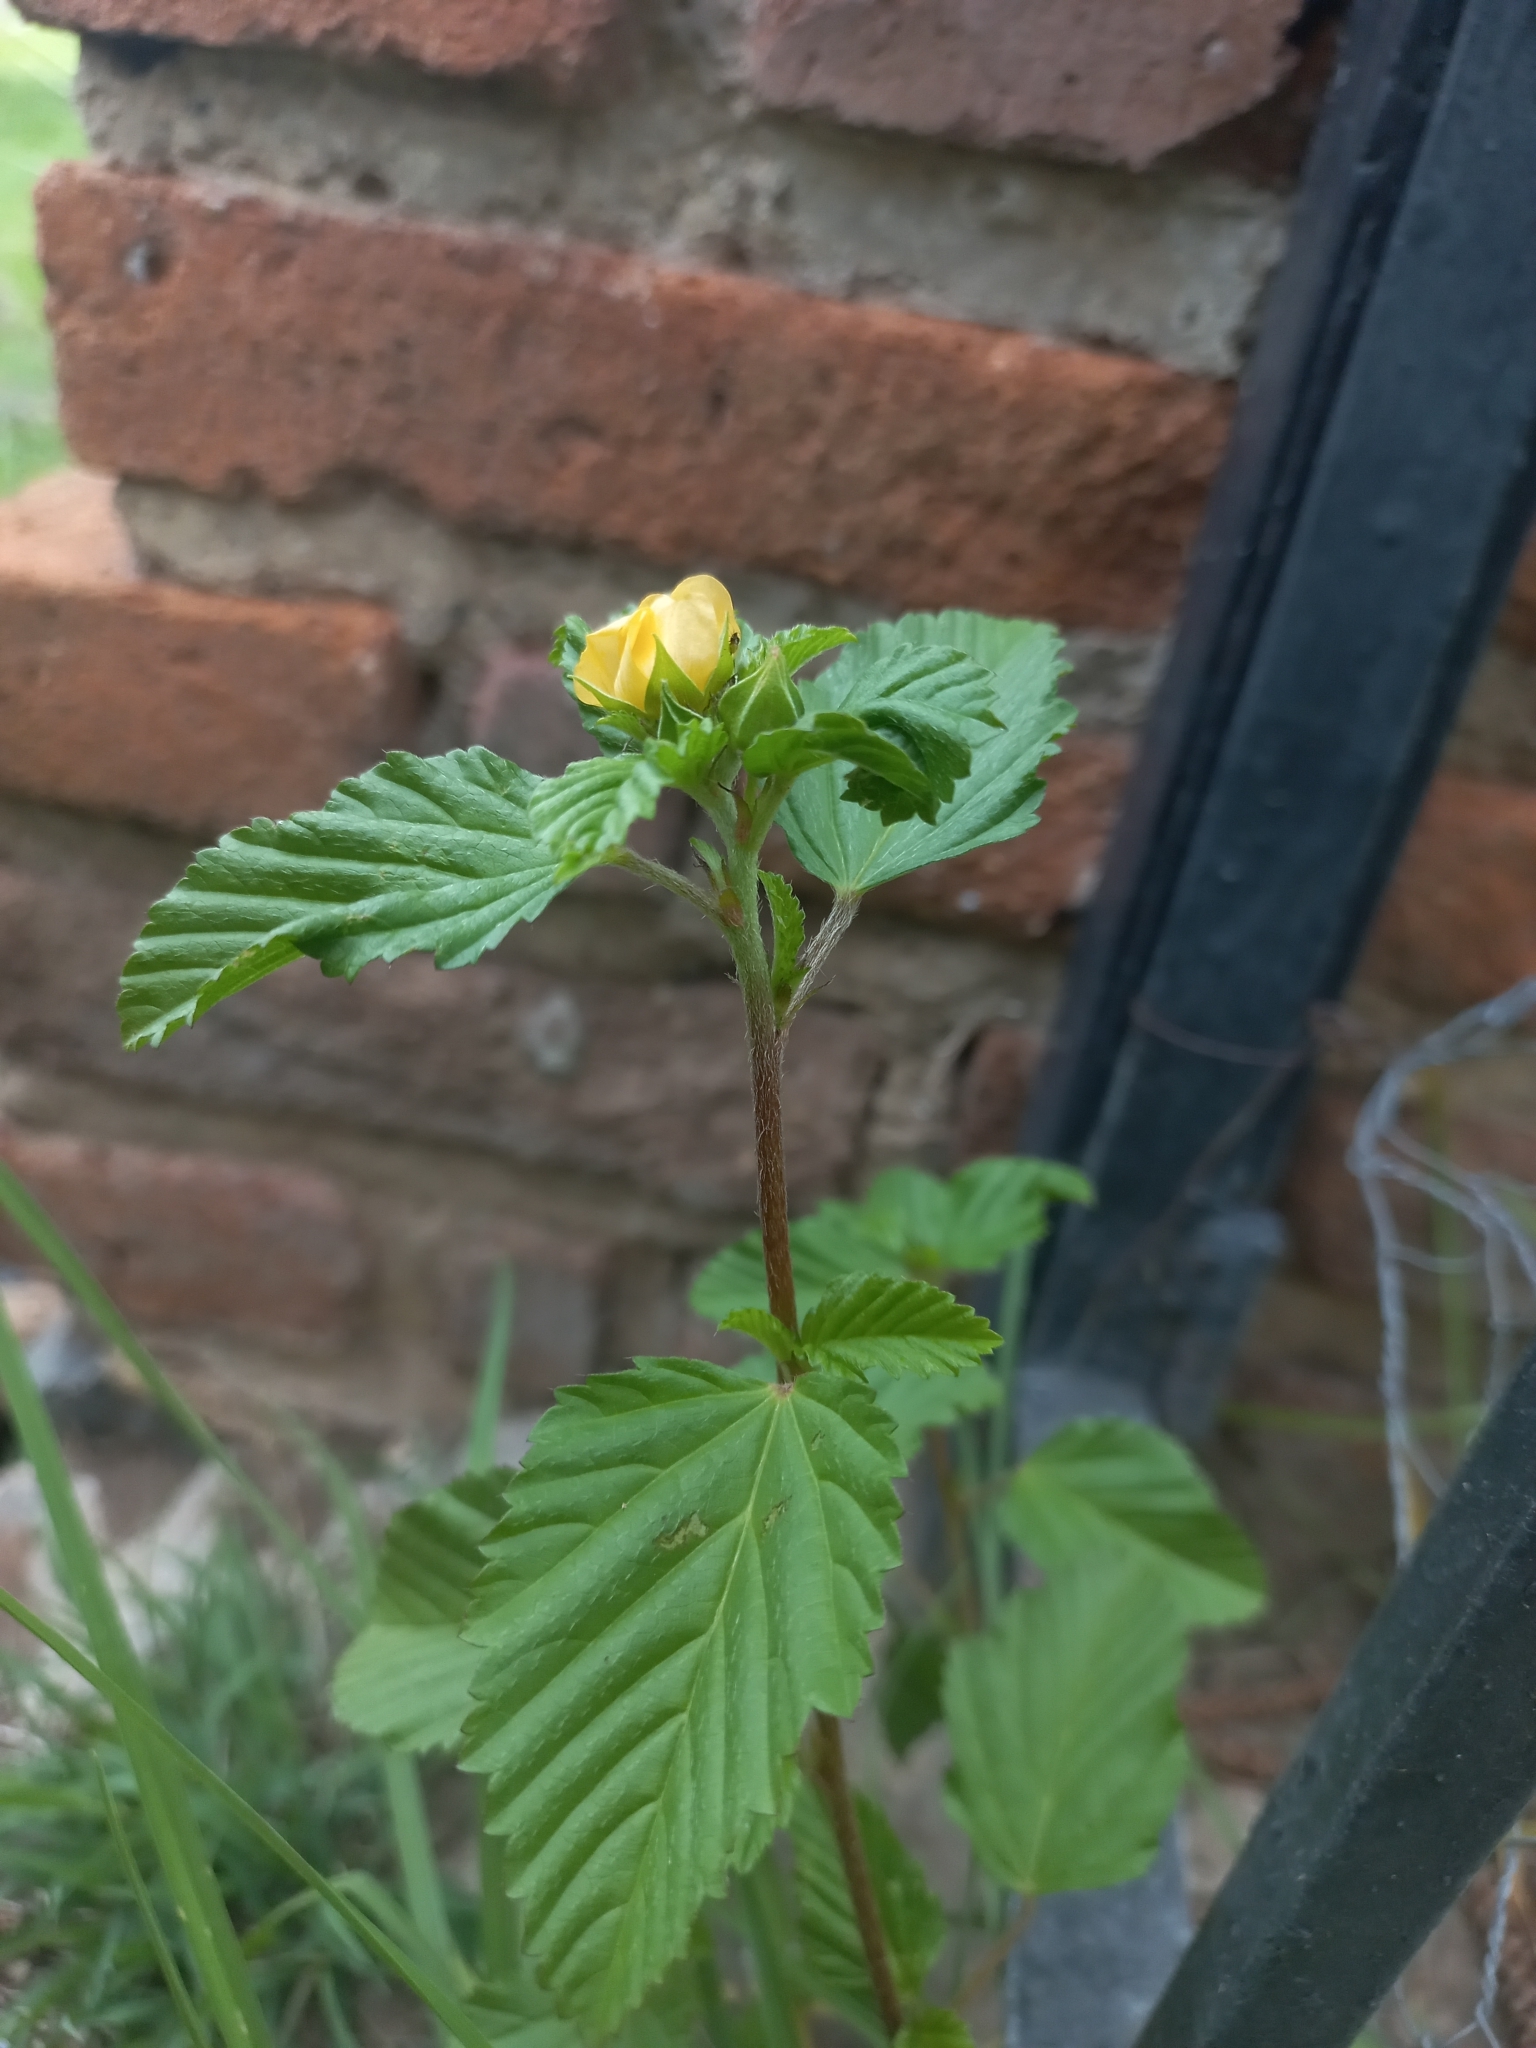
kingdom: Plantae
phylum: Tracheophyta
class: Magnoliopsida
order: Malvales
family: Malvaceae
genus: Malvastrum
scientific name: Malvastrum coromandelianum
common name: Threelobe false mallow
